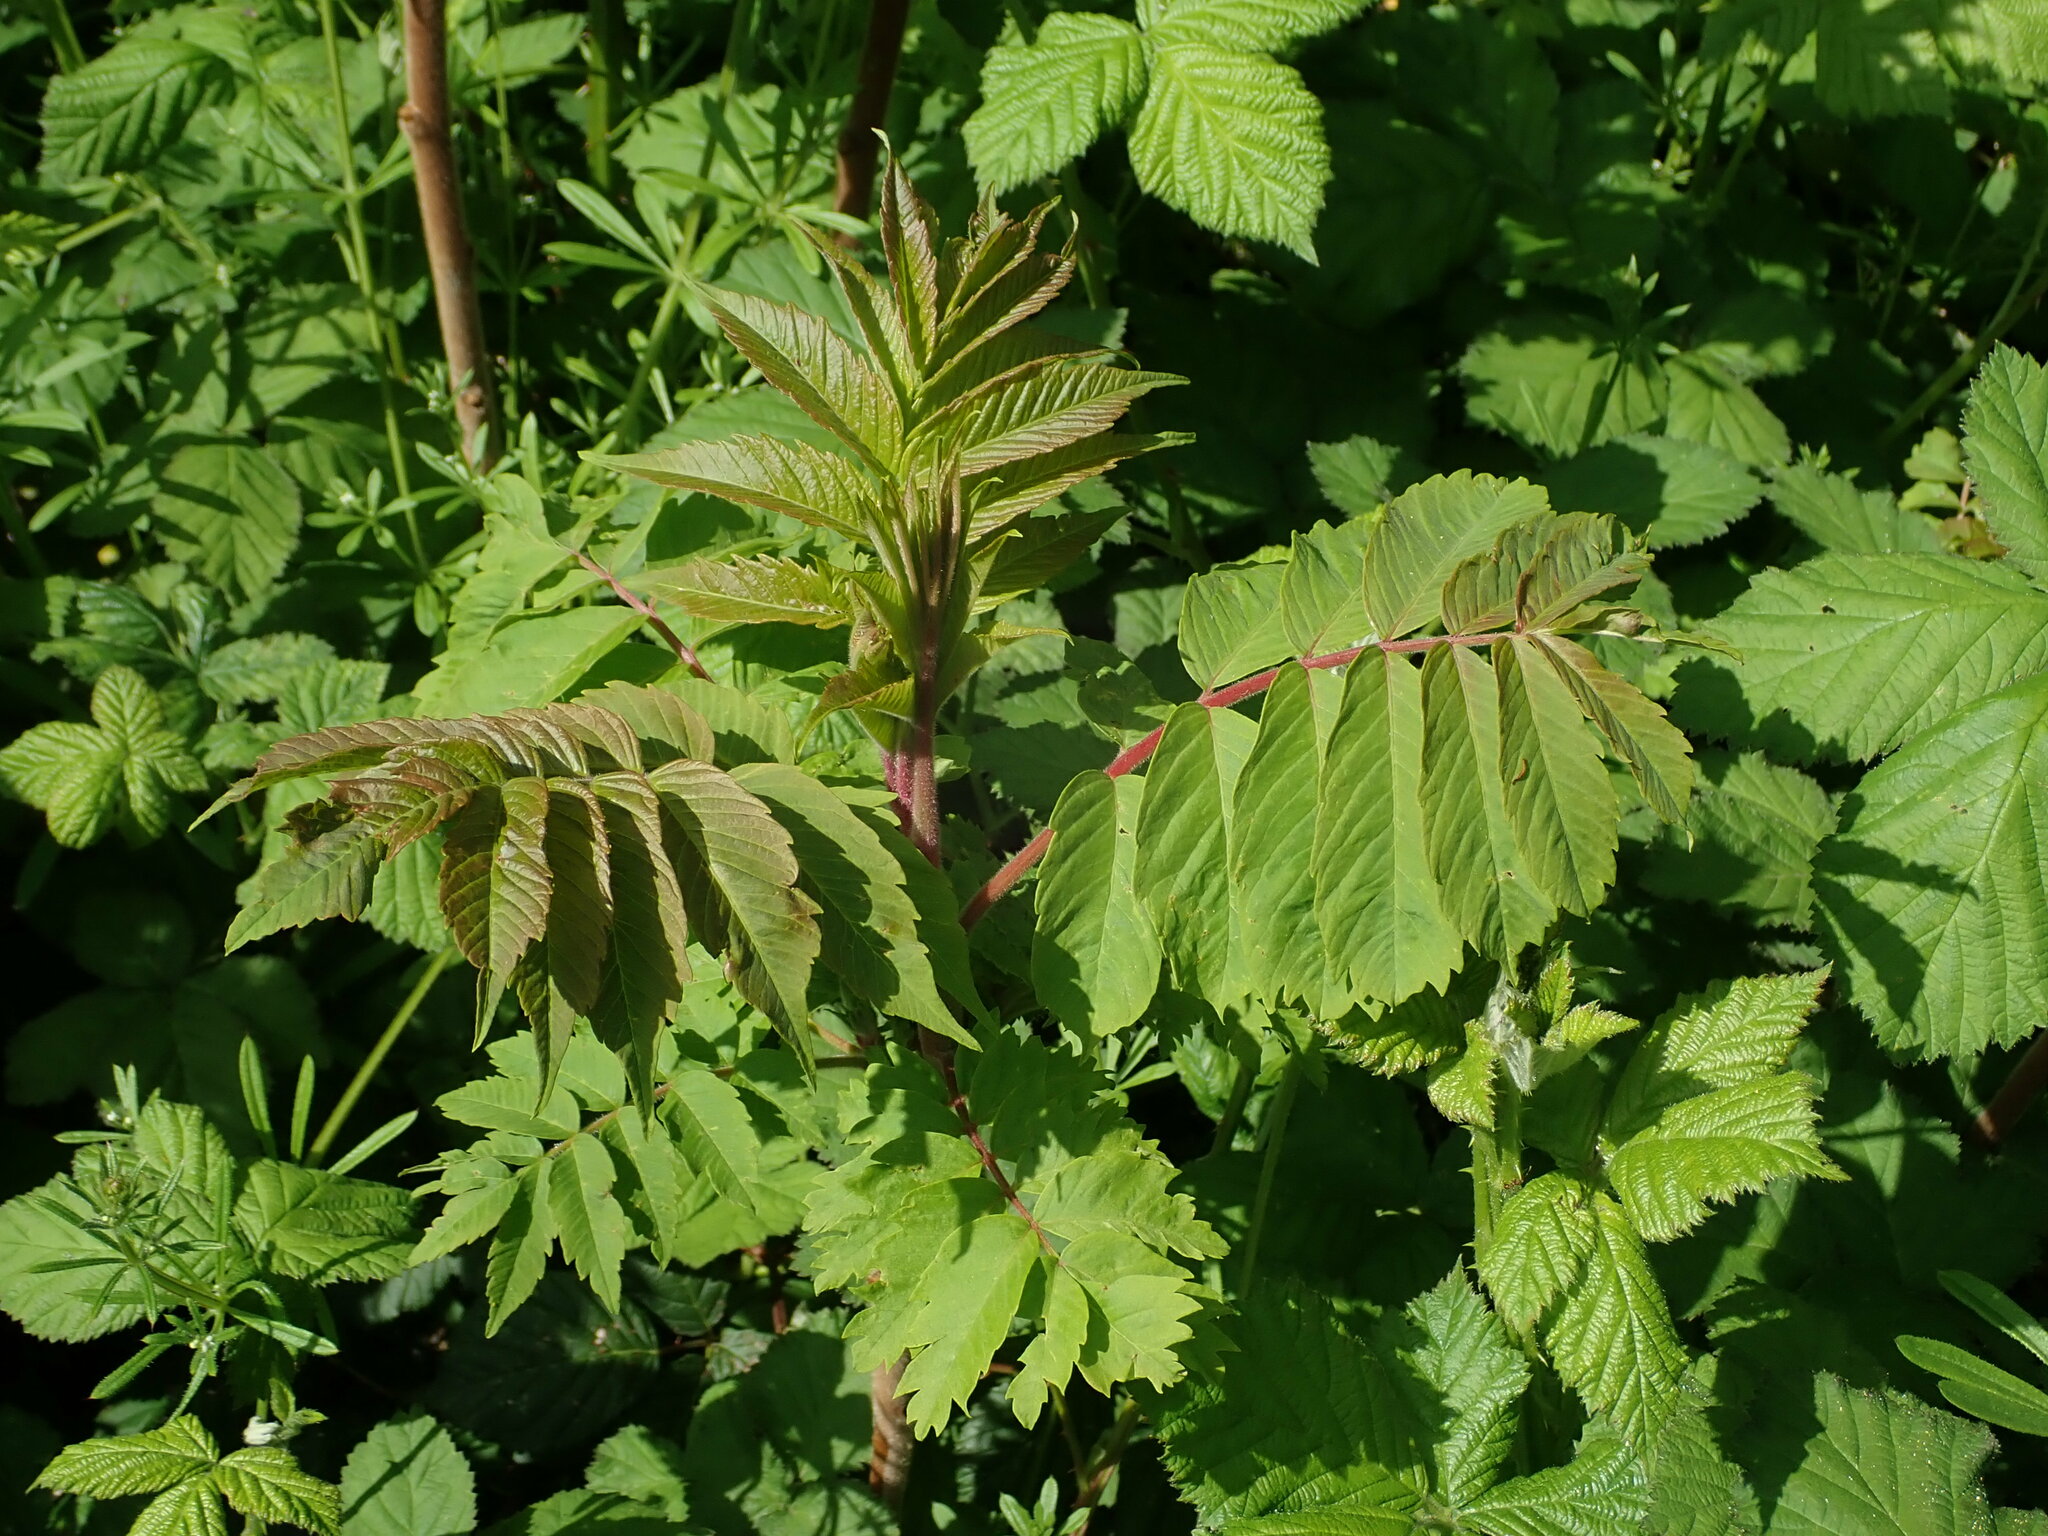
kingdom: Plantae
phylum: Tracheophyta
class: Magnoliopsida
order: Sapindales
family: Anacardiaceae
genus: Rhus
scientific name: Rhus typhina
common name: Staghorn sumac
